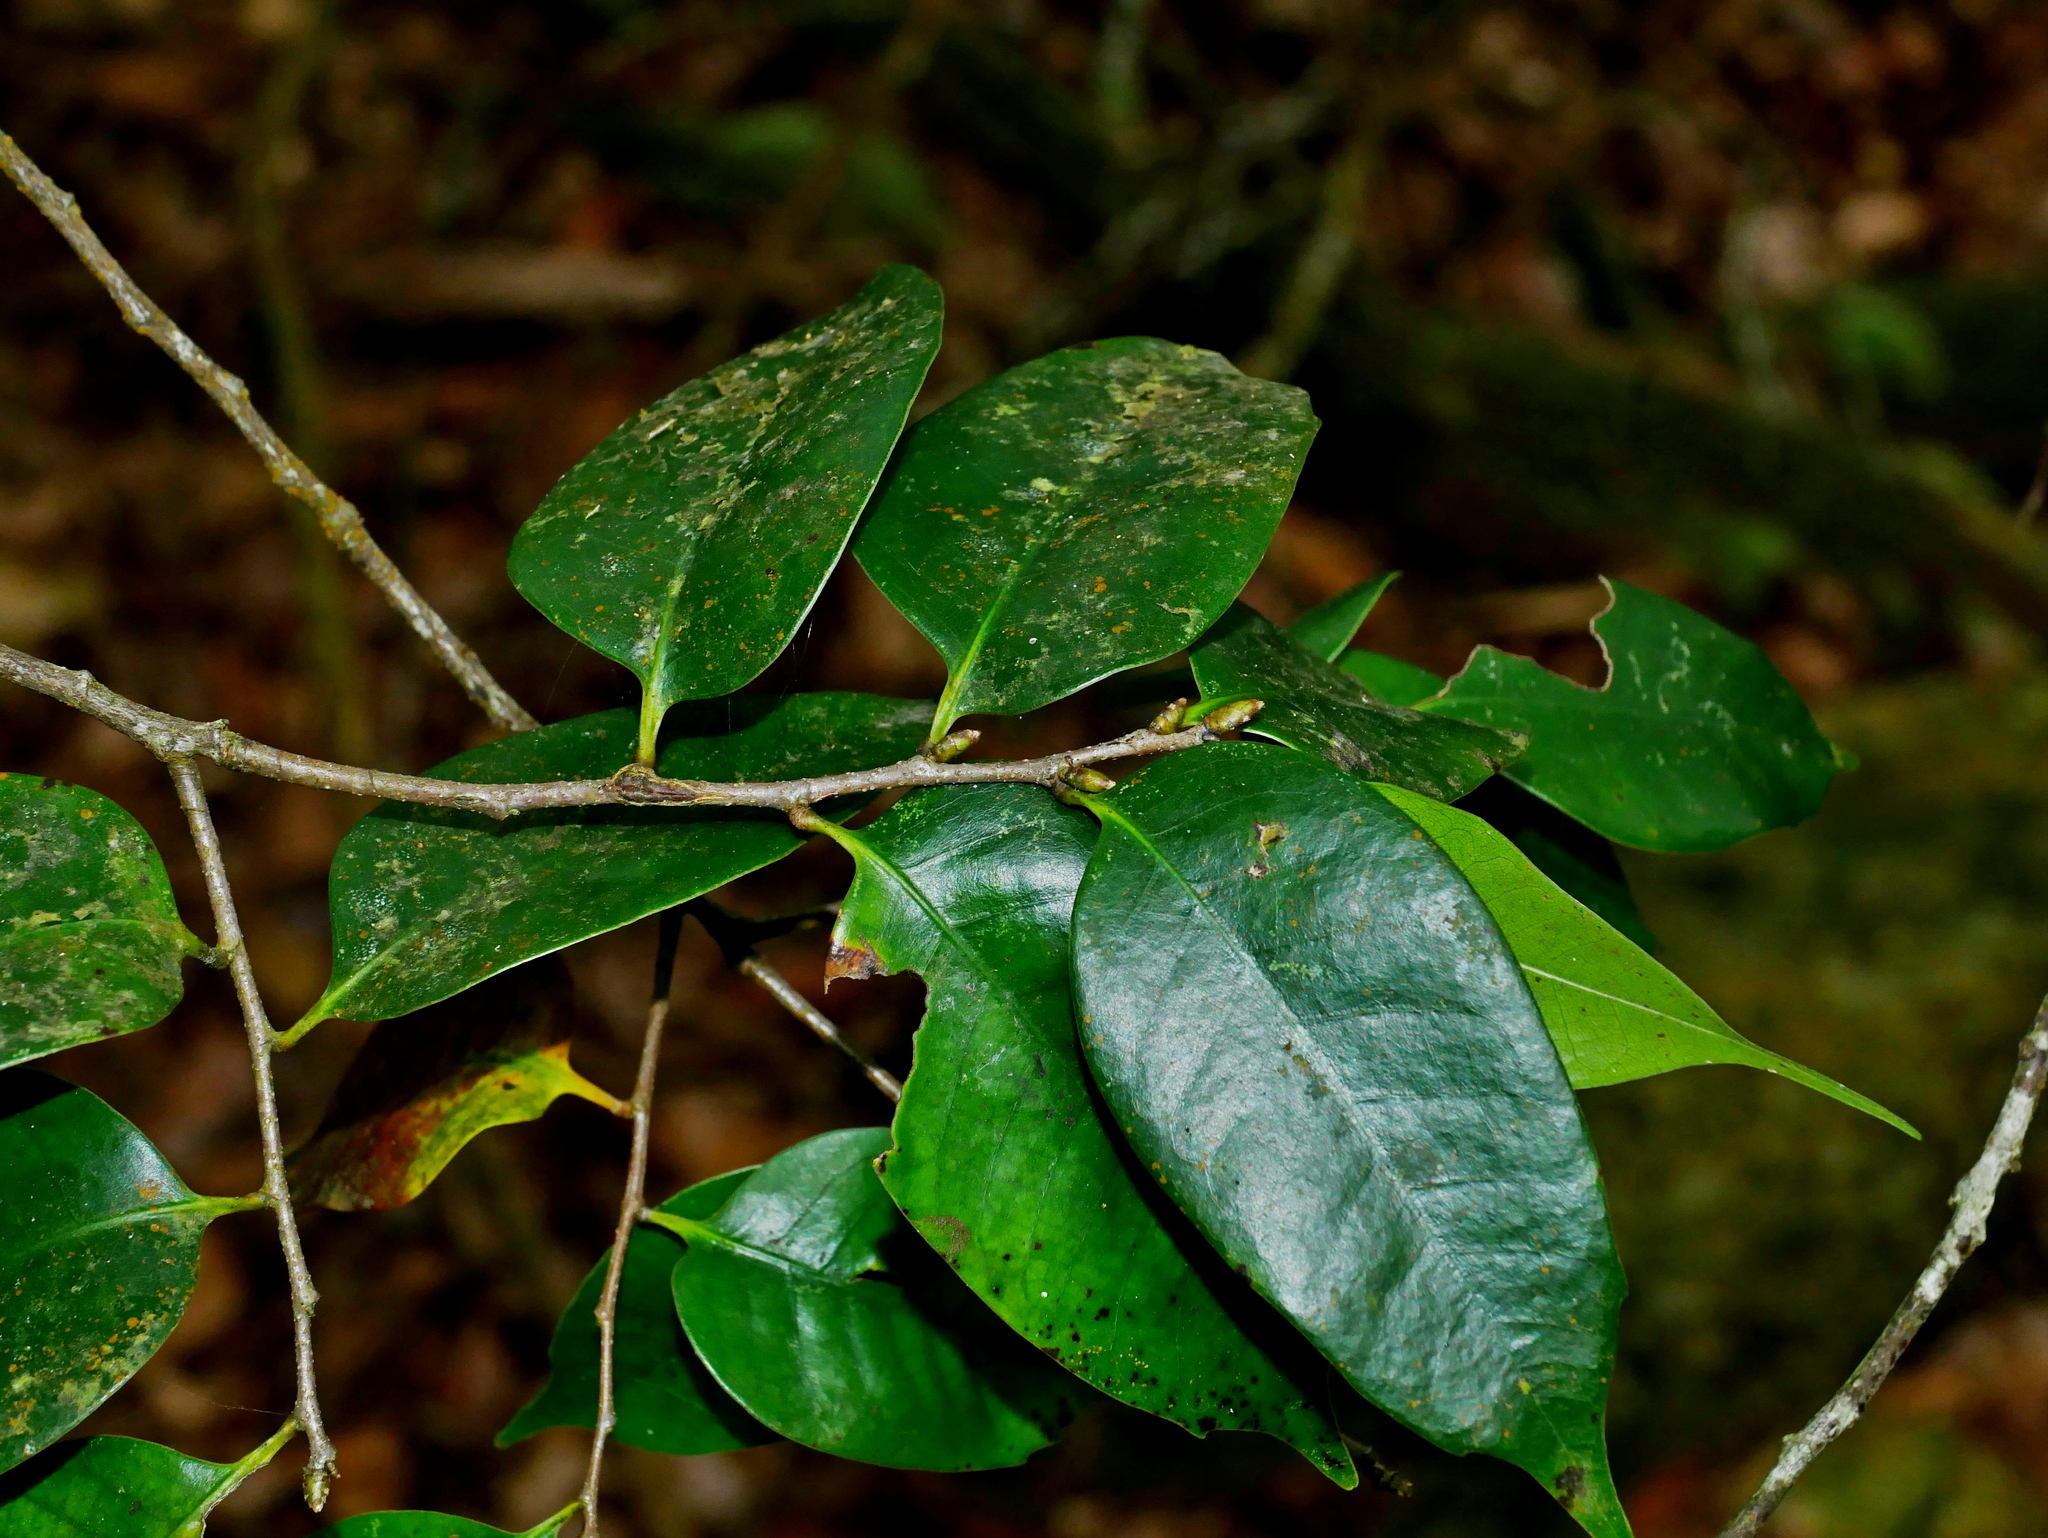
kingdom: Plantae
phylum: Tracheophyta
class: Magnoliopsida
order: Fagales
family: Fagaceae
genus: Castanopsis
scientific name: Castanopsis eyrei
